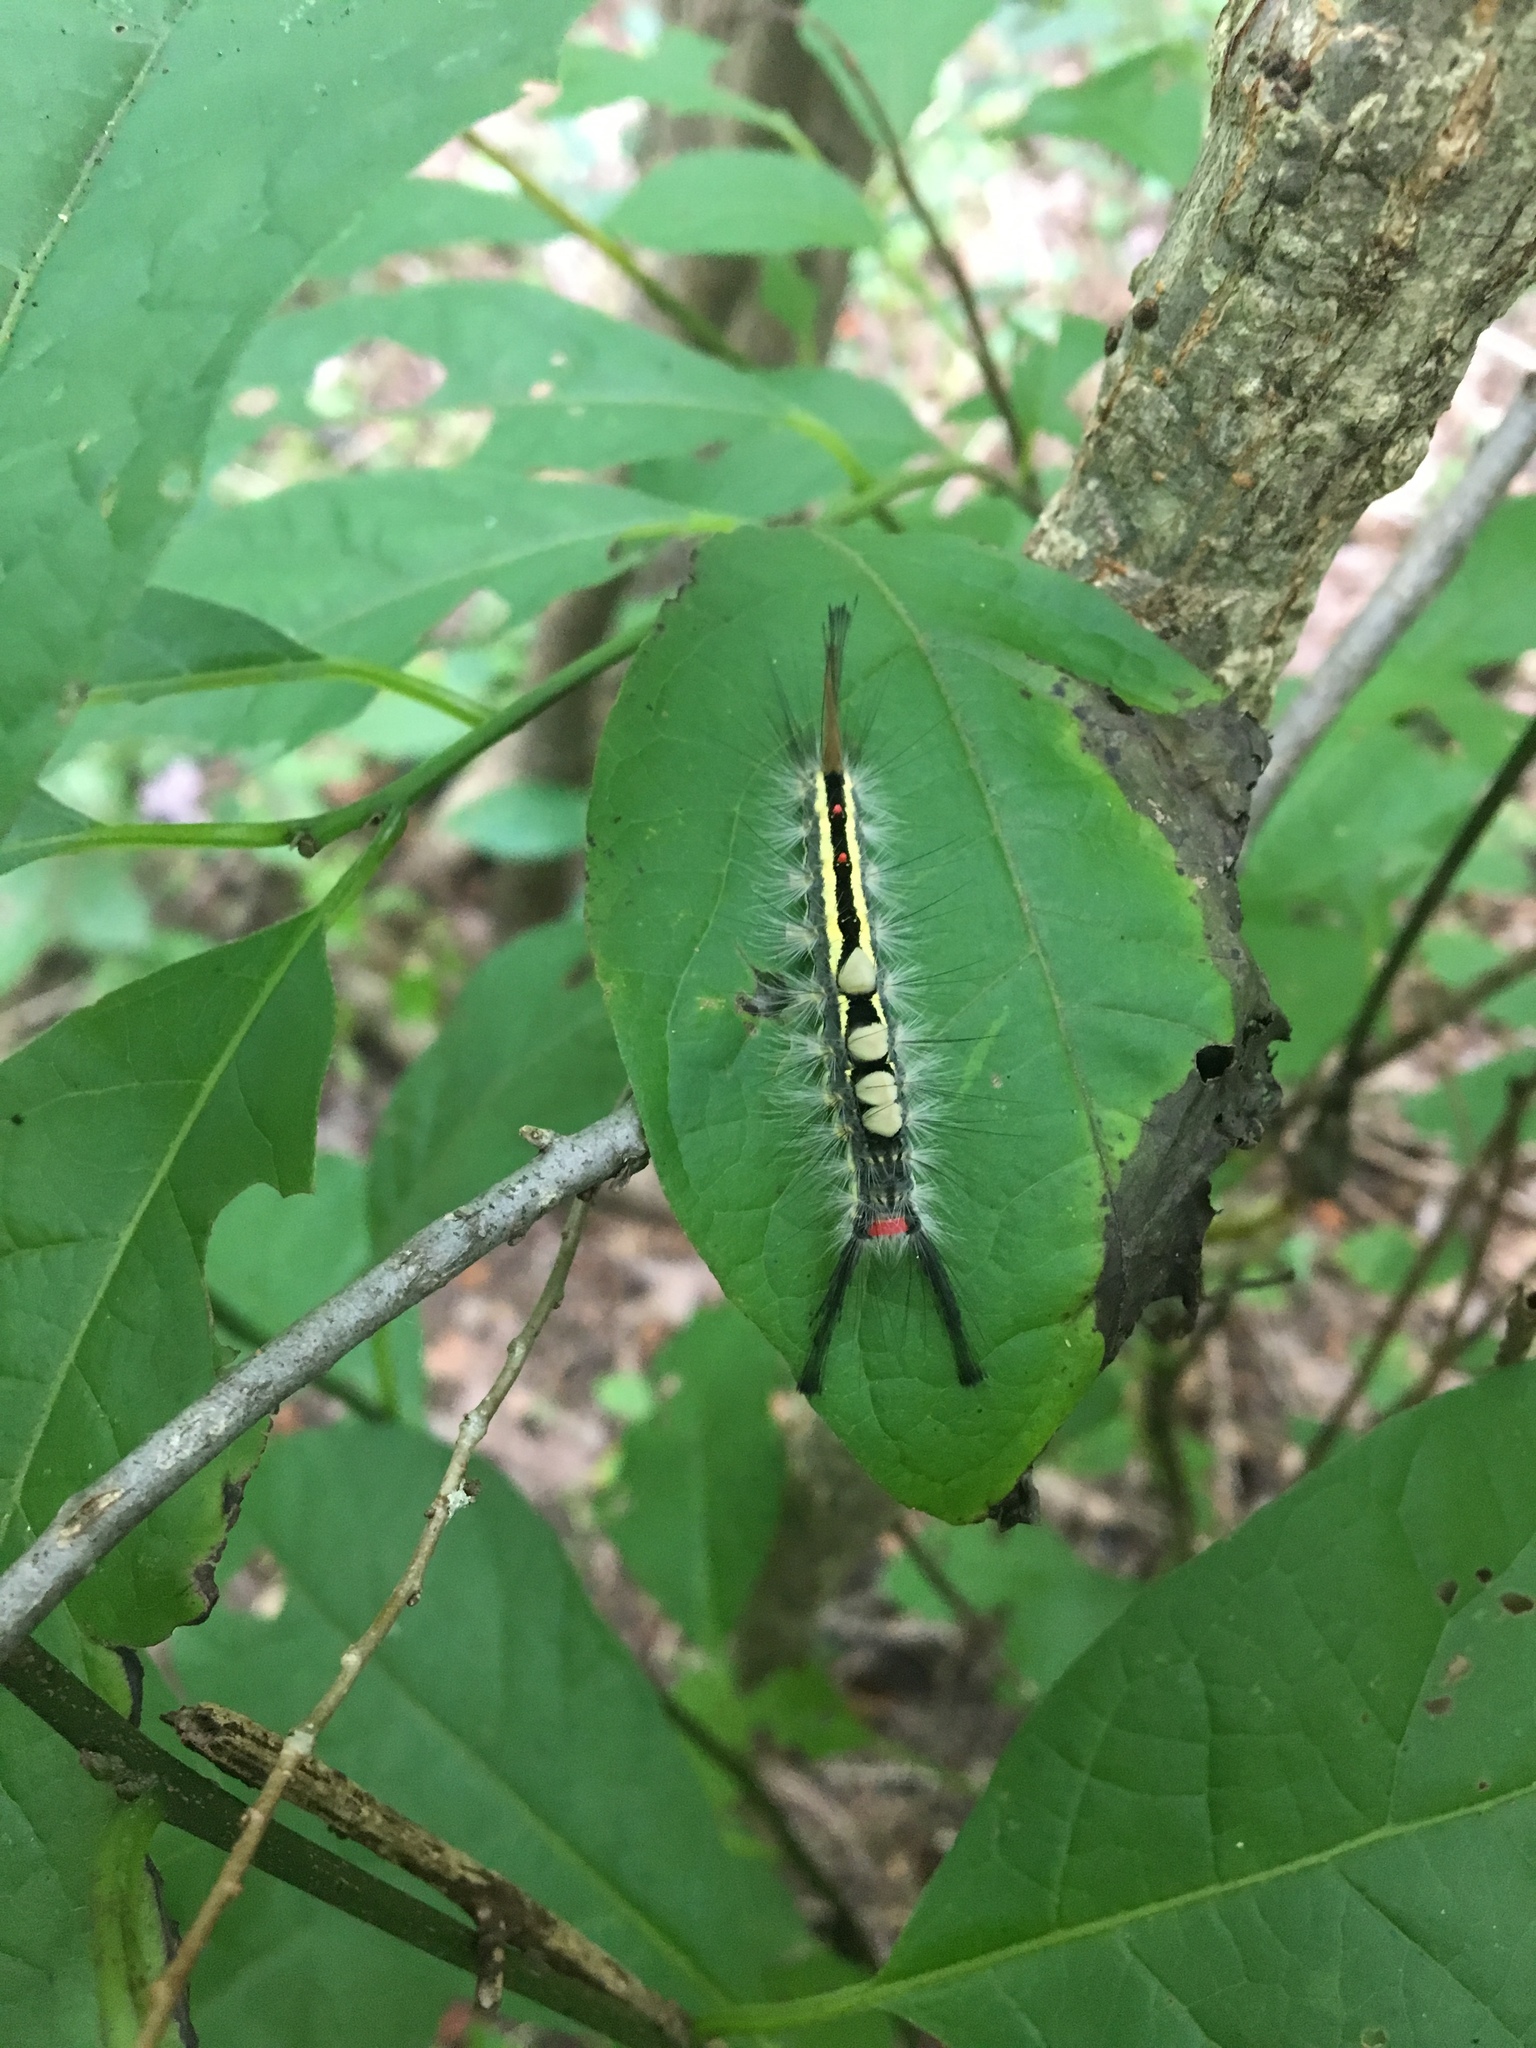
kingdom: Animalia
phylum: Arthropoda
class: Insecta
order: Lepidoptera
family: Erebidae
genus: Orgyia
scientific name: Orgyia leucostigma
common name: White-marked tussock moth
